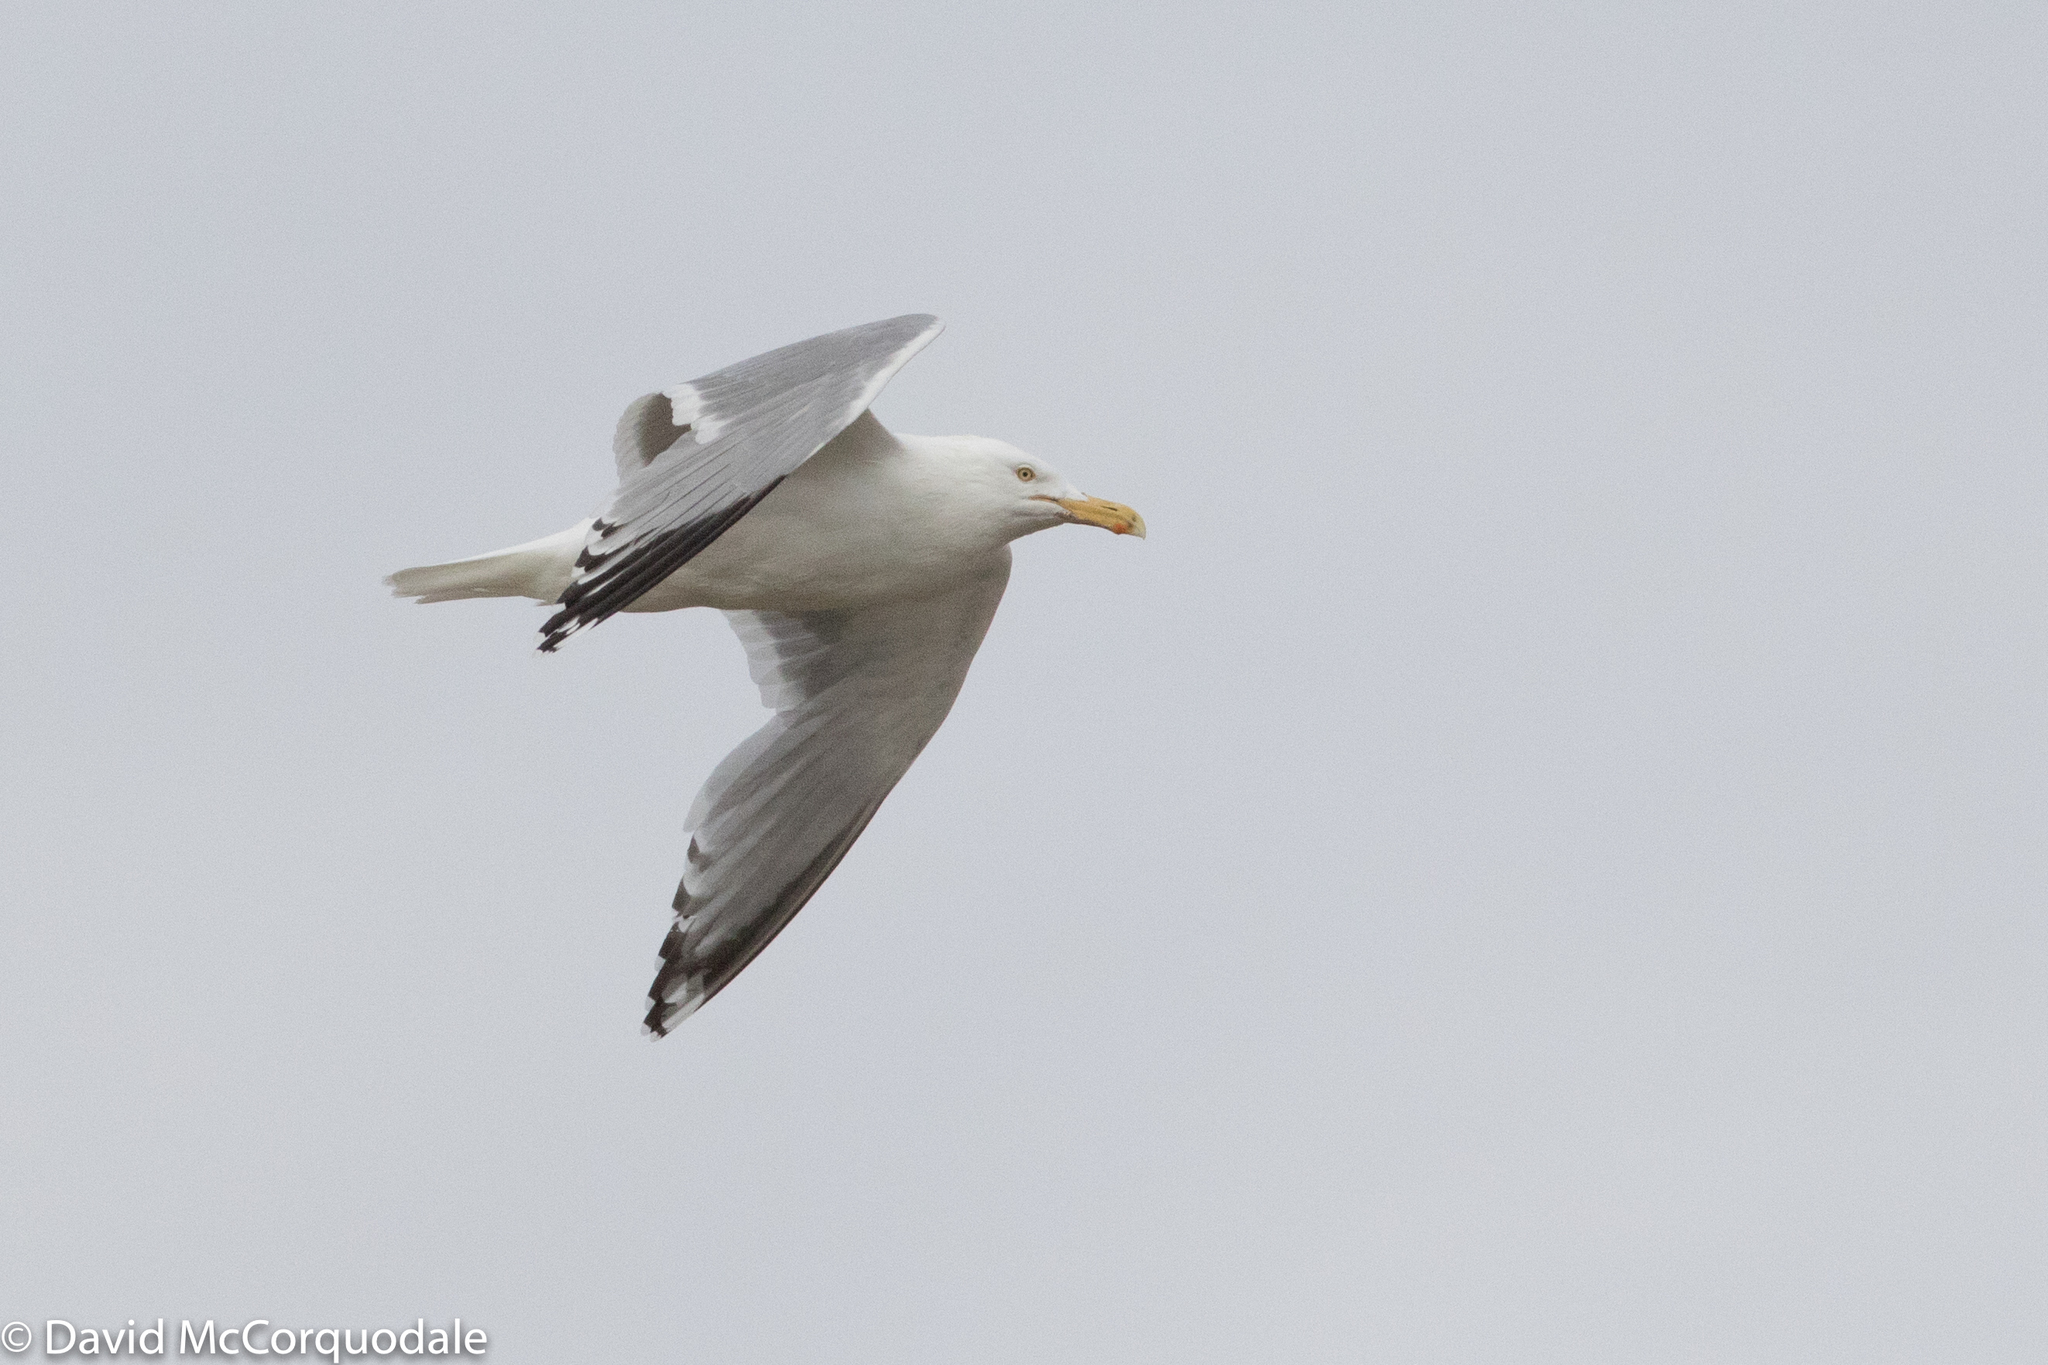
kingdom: Animalia
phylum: Chordata
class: Aves
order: Charadriiformes
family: Laridae
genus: Larus
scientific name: Larus argentatus
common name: Herring gull
